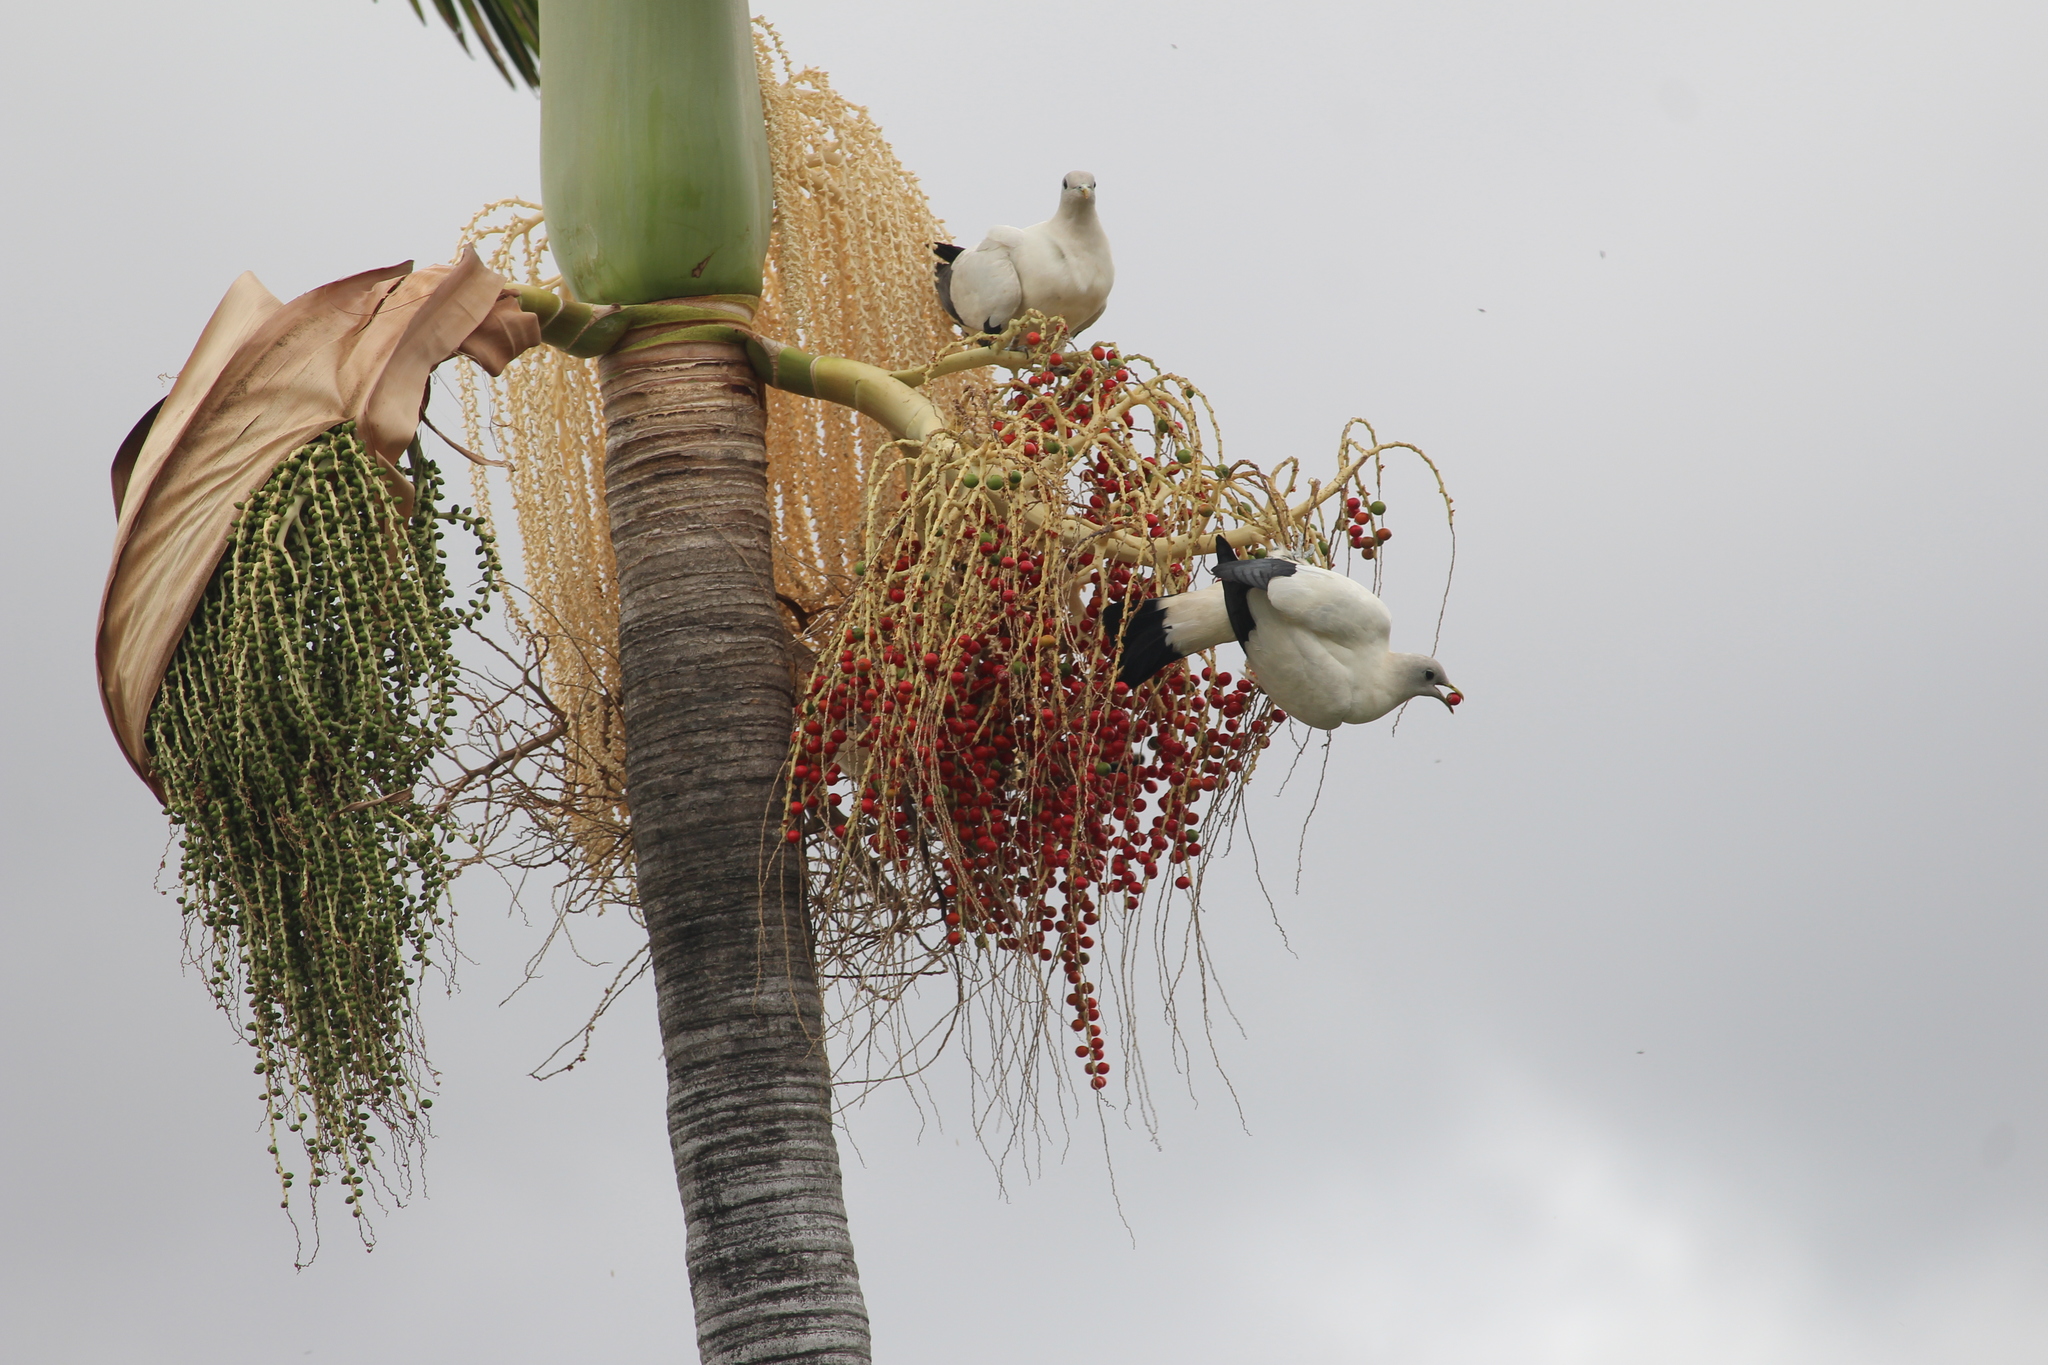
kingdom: Animalia
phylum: Chordata
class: Aves
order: Columbiformes
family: Columbidae
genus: Ducula
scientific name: Ducula spilorrhoa
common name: Torresian imperial pigeon
